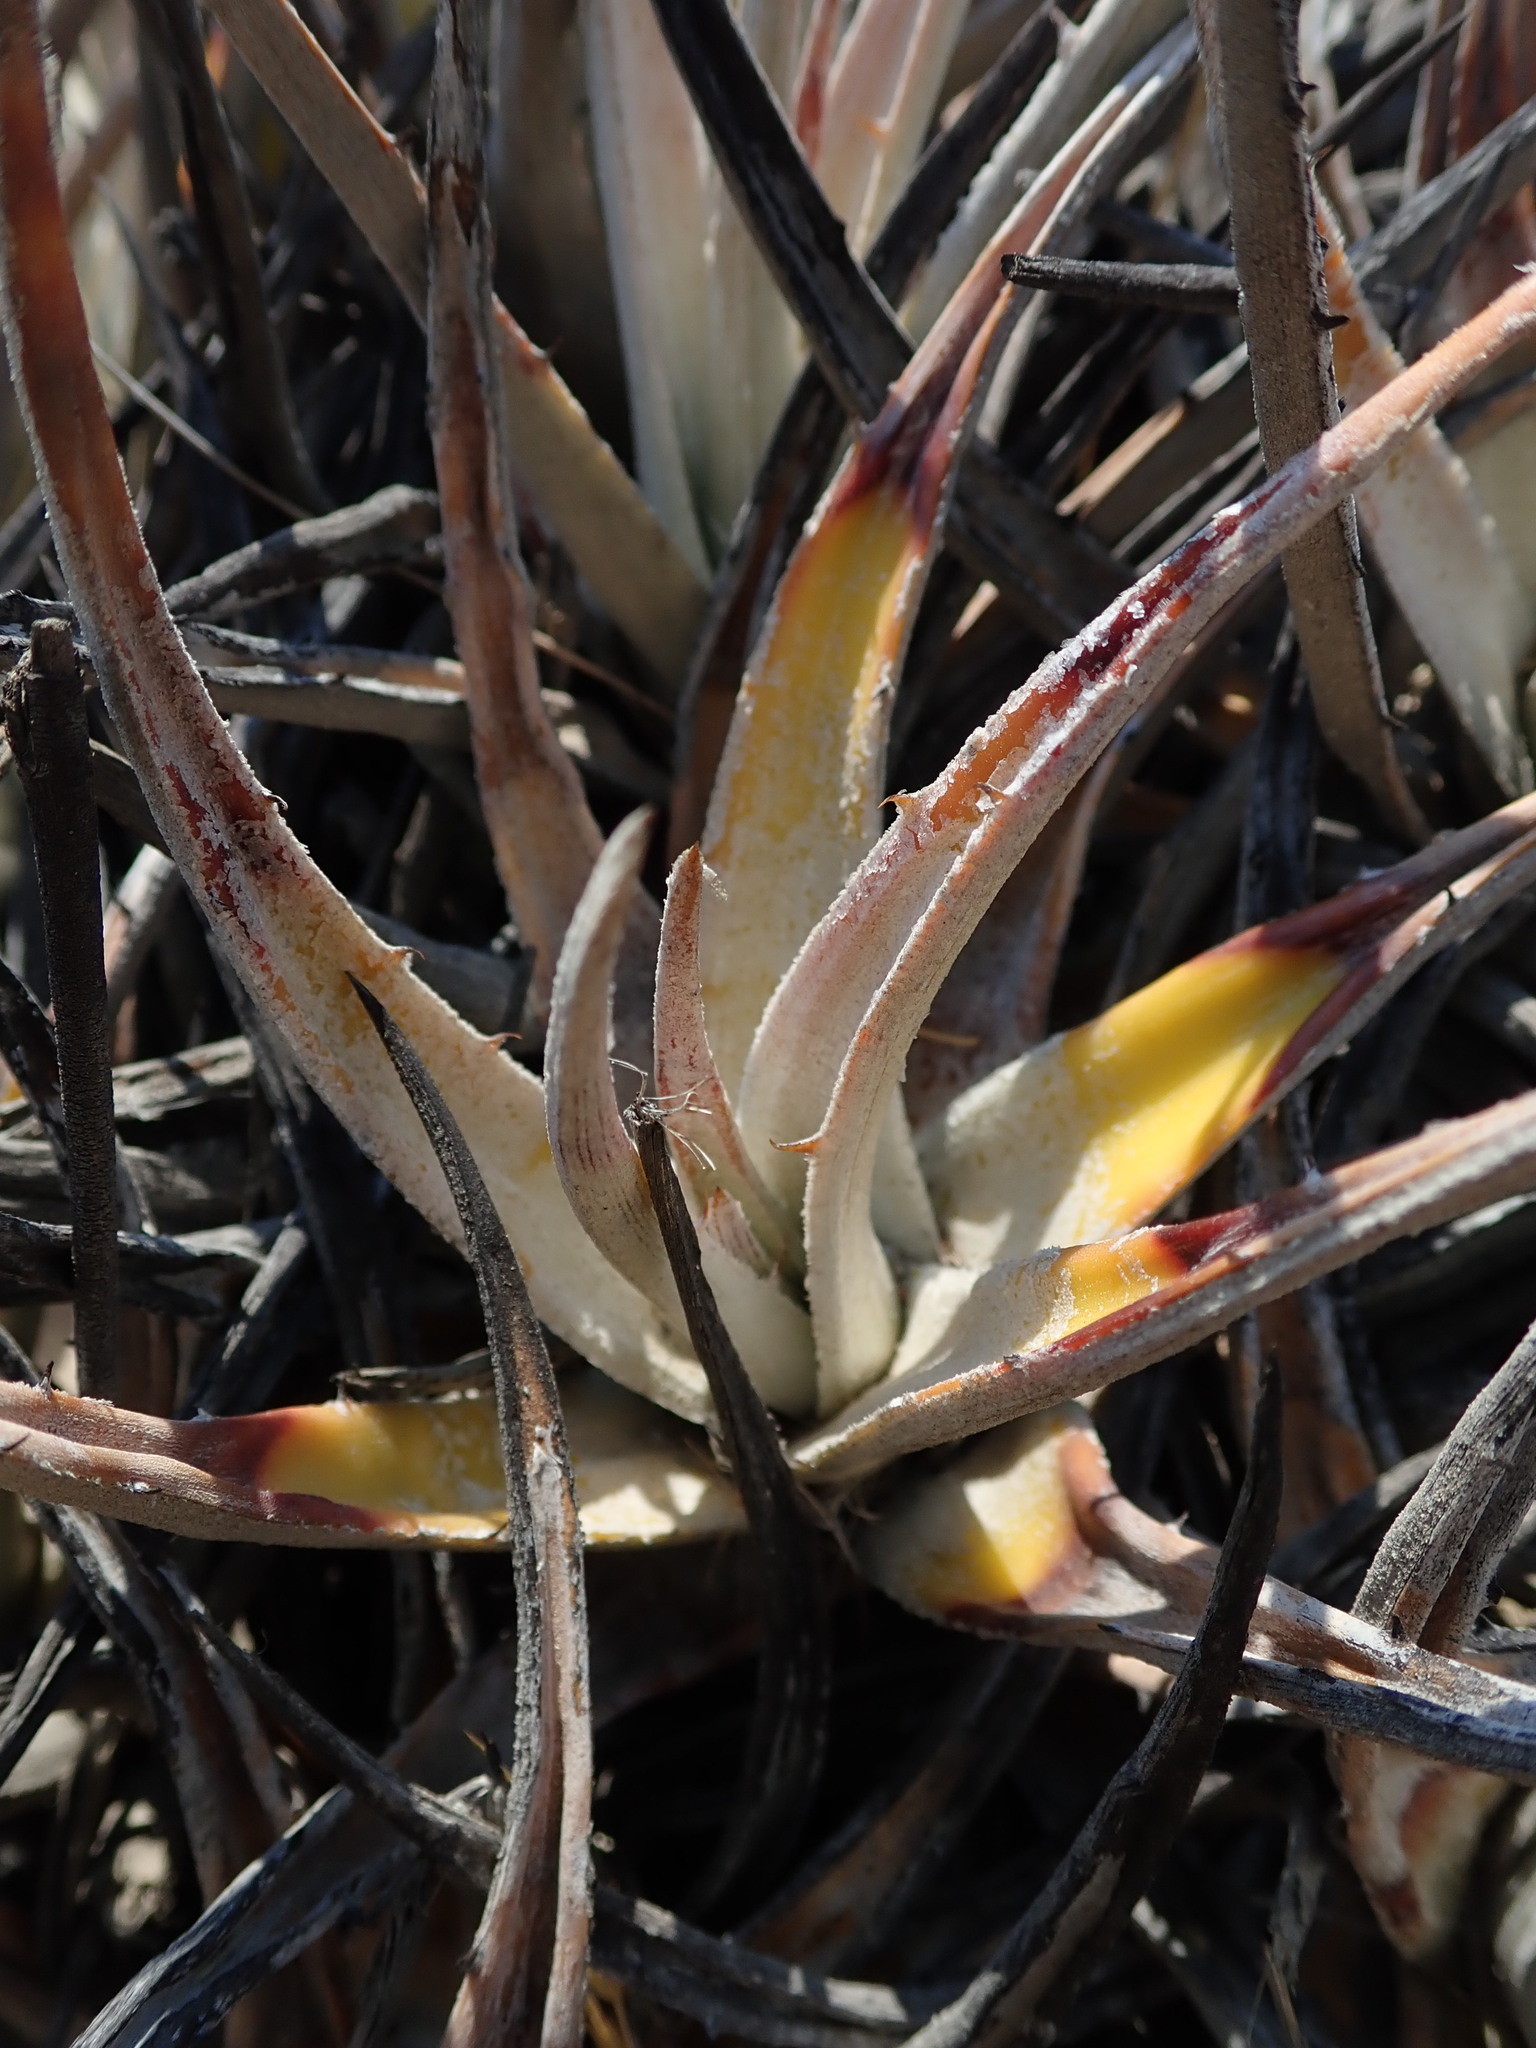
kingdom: Plantae
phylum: Tracheophyta
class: Liliopsida
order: Poales
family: Bromeliaceae
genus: Deuterocohnia
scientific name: Deuterocohnia strobilifera
